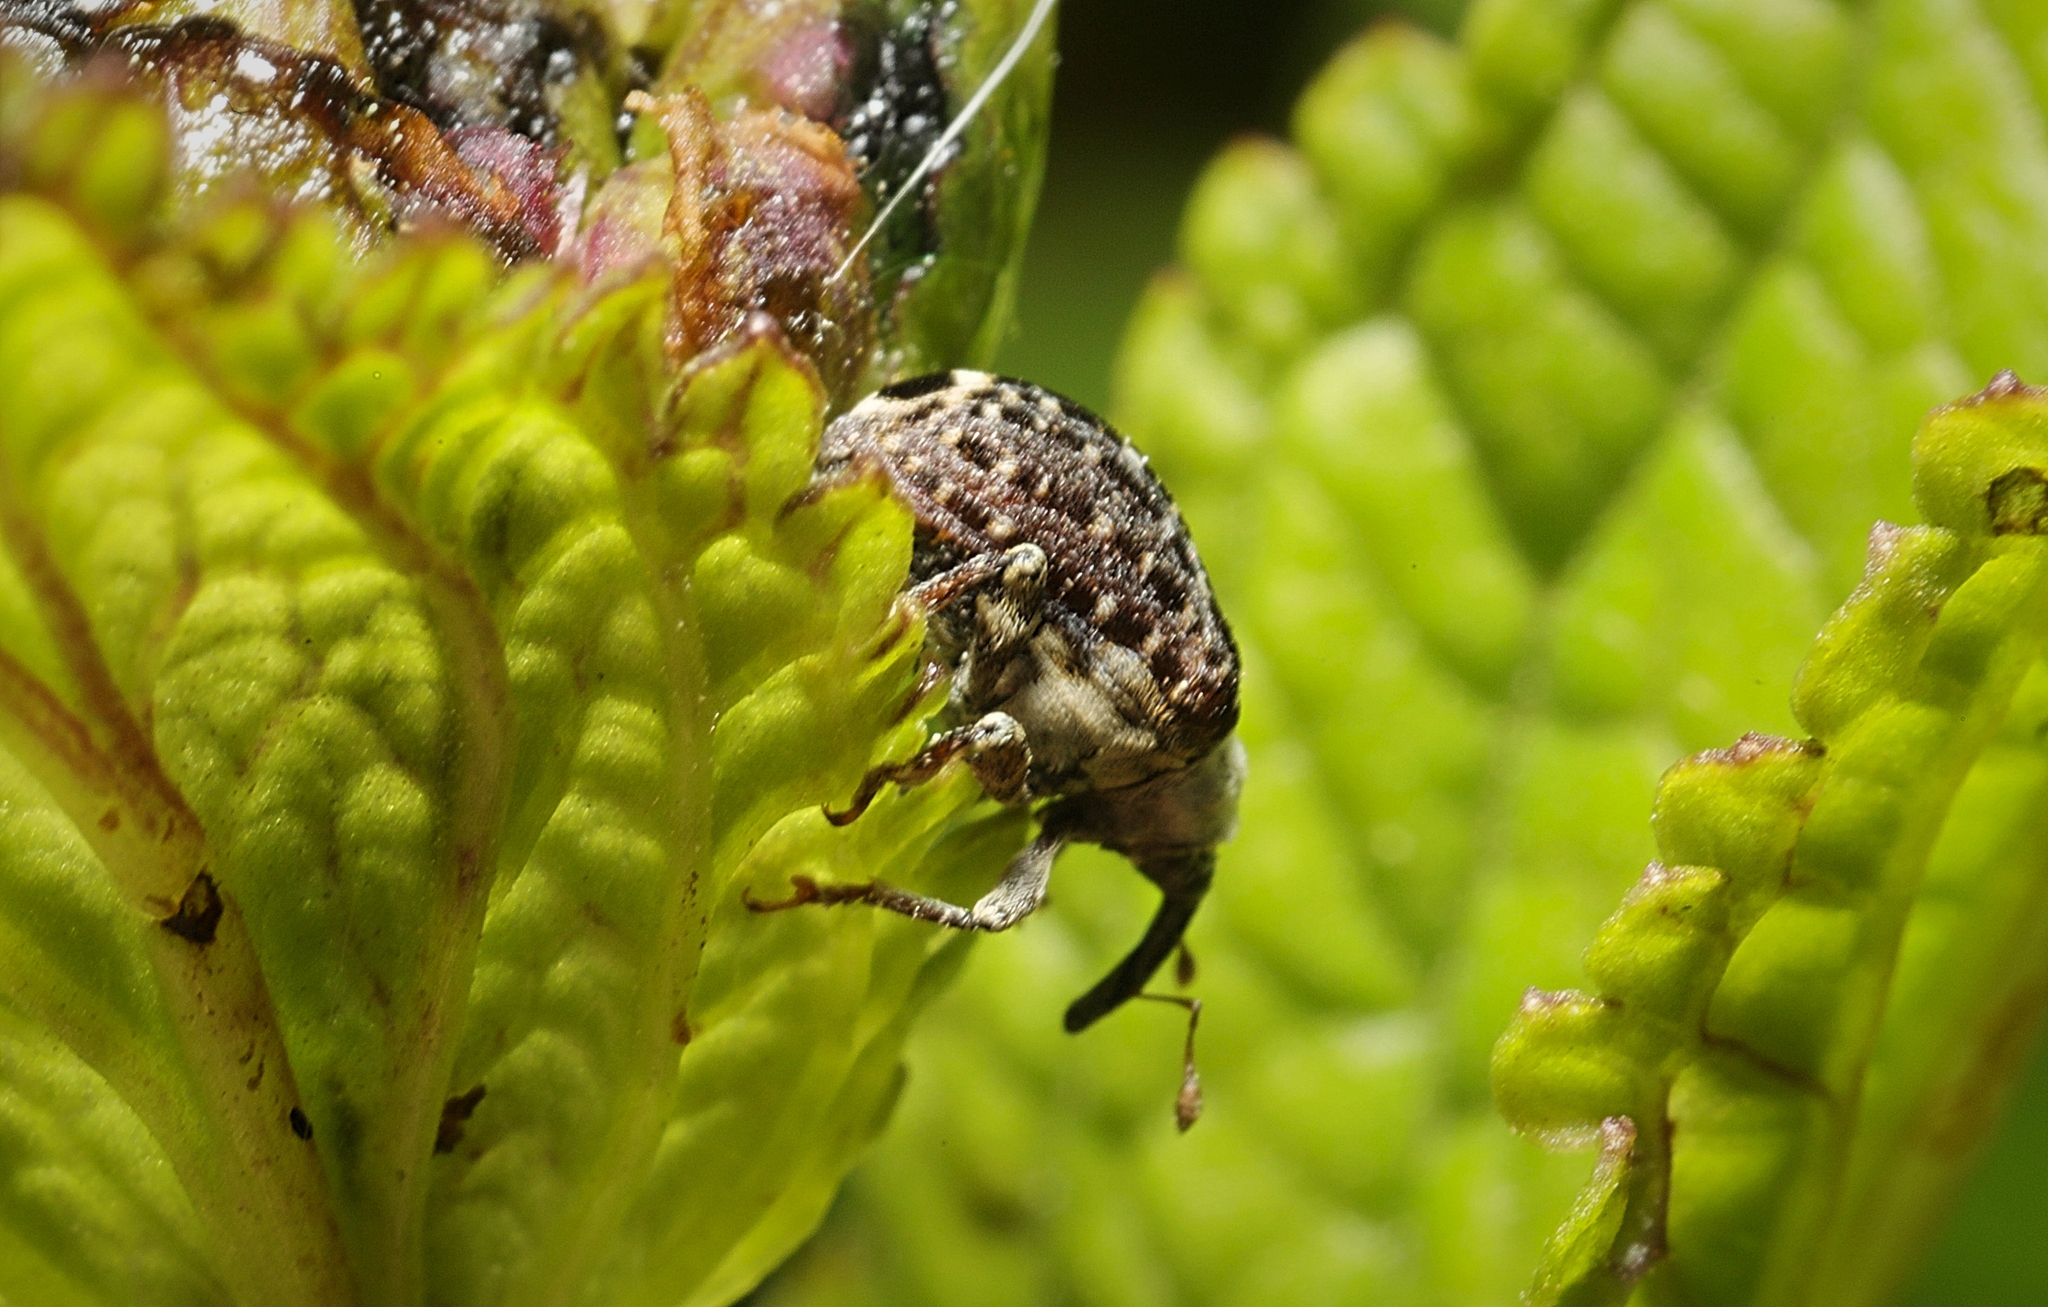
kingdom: Animalia
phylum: Arthropoda
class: Insecta
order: Coleoptera
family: Curculionidae
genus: Cionus
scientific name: Cionus scrophulariae
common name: Common figwort weevil
